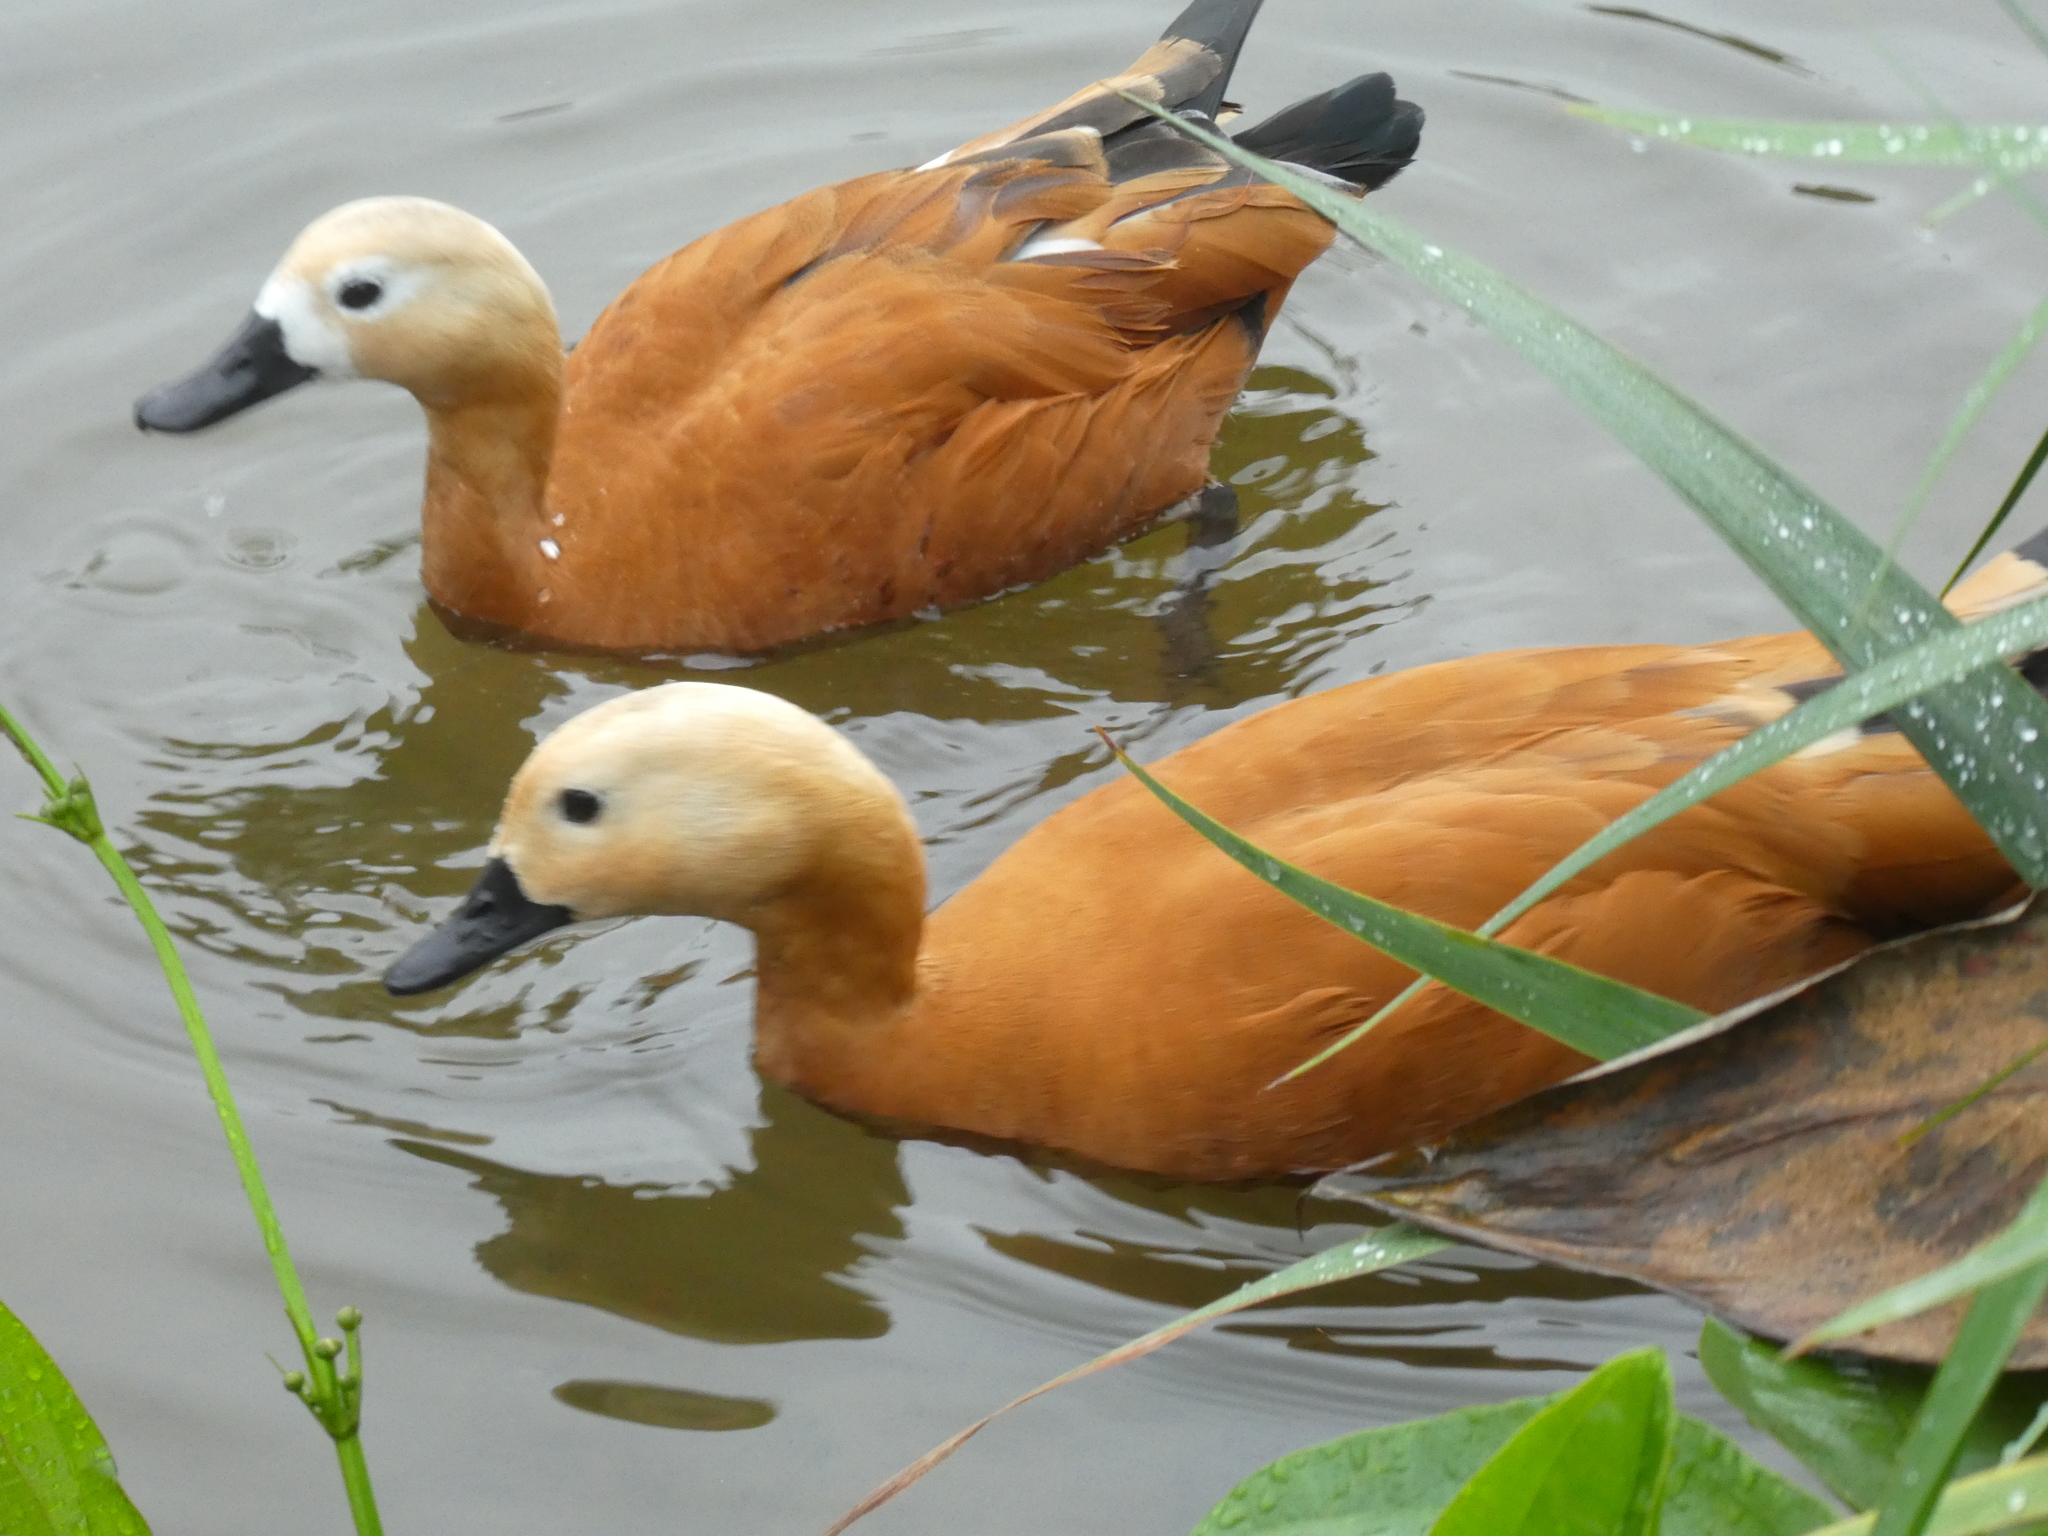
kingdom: Animalia
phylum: Chordata
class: Aves
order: Anseriformes
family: Anatidae
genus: Tadorna
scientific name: Tadorna ferruginea
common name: Ruddy shelduck
